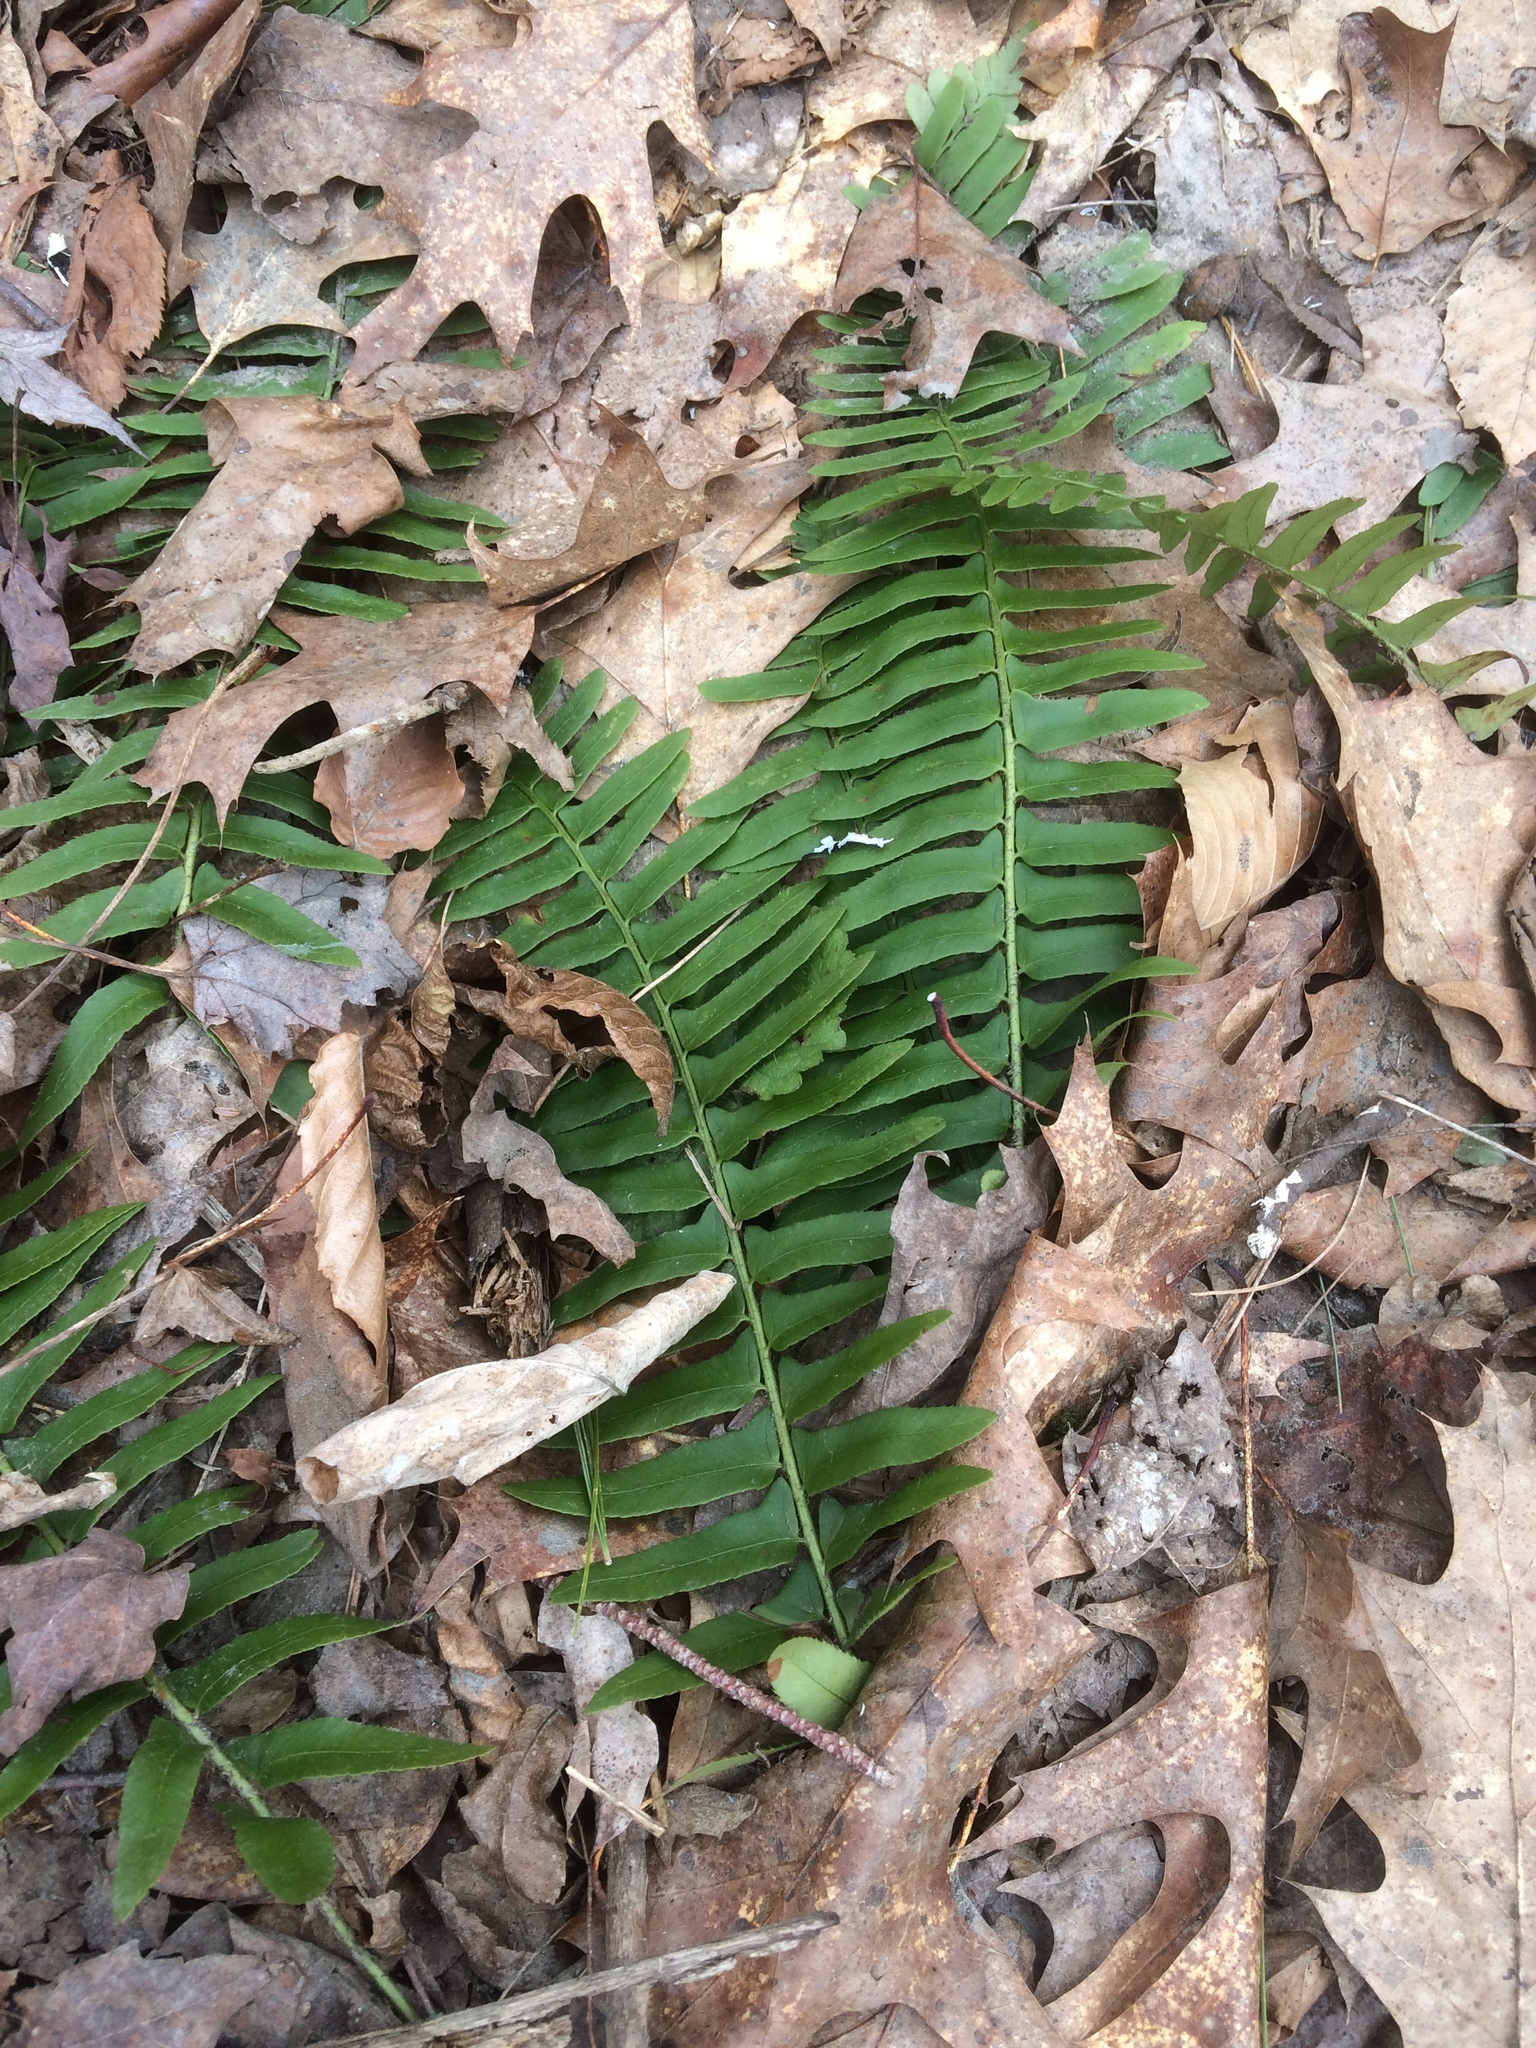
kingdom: Plantae
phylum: Tracheophyta
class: Polypodiopsida
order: Polypodiales
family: Dryopteridaceae
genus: Polystichum
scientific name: Polystichum acrostichoides
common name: Christmas fern
